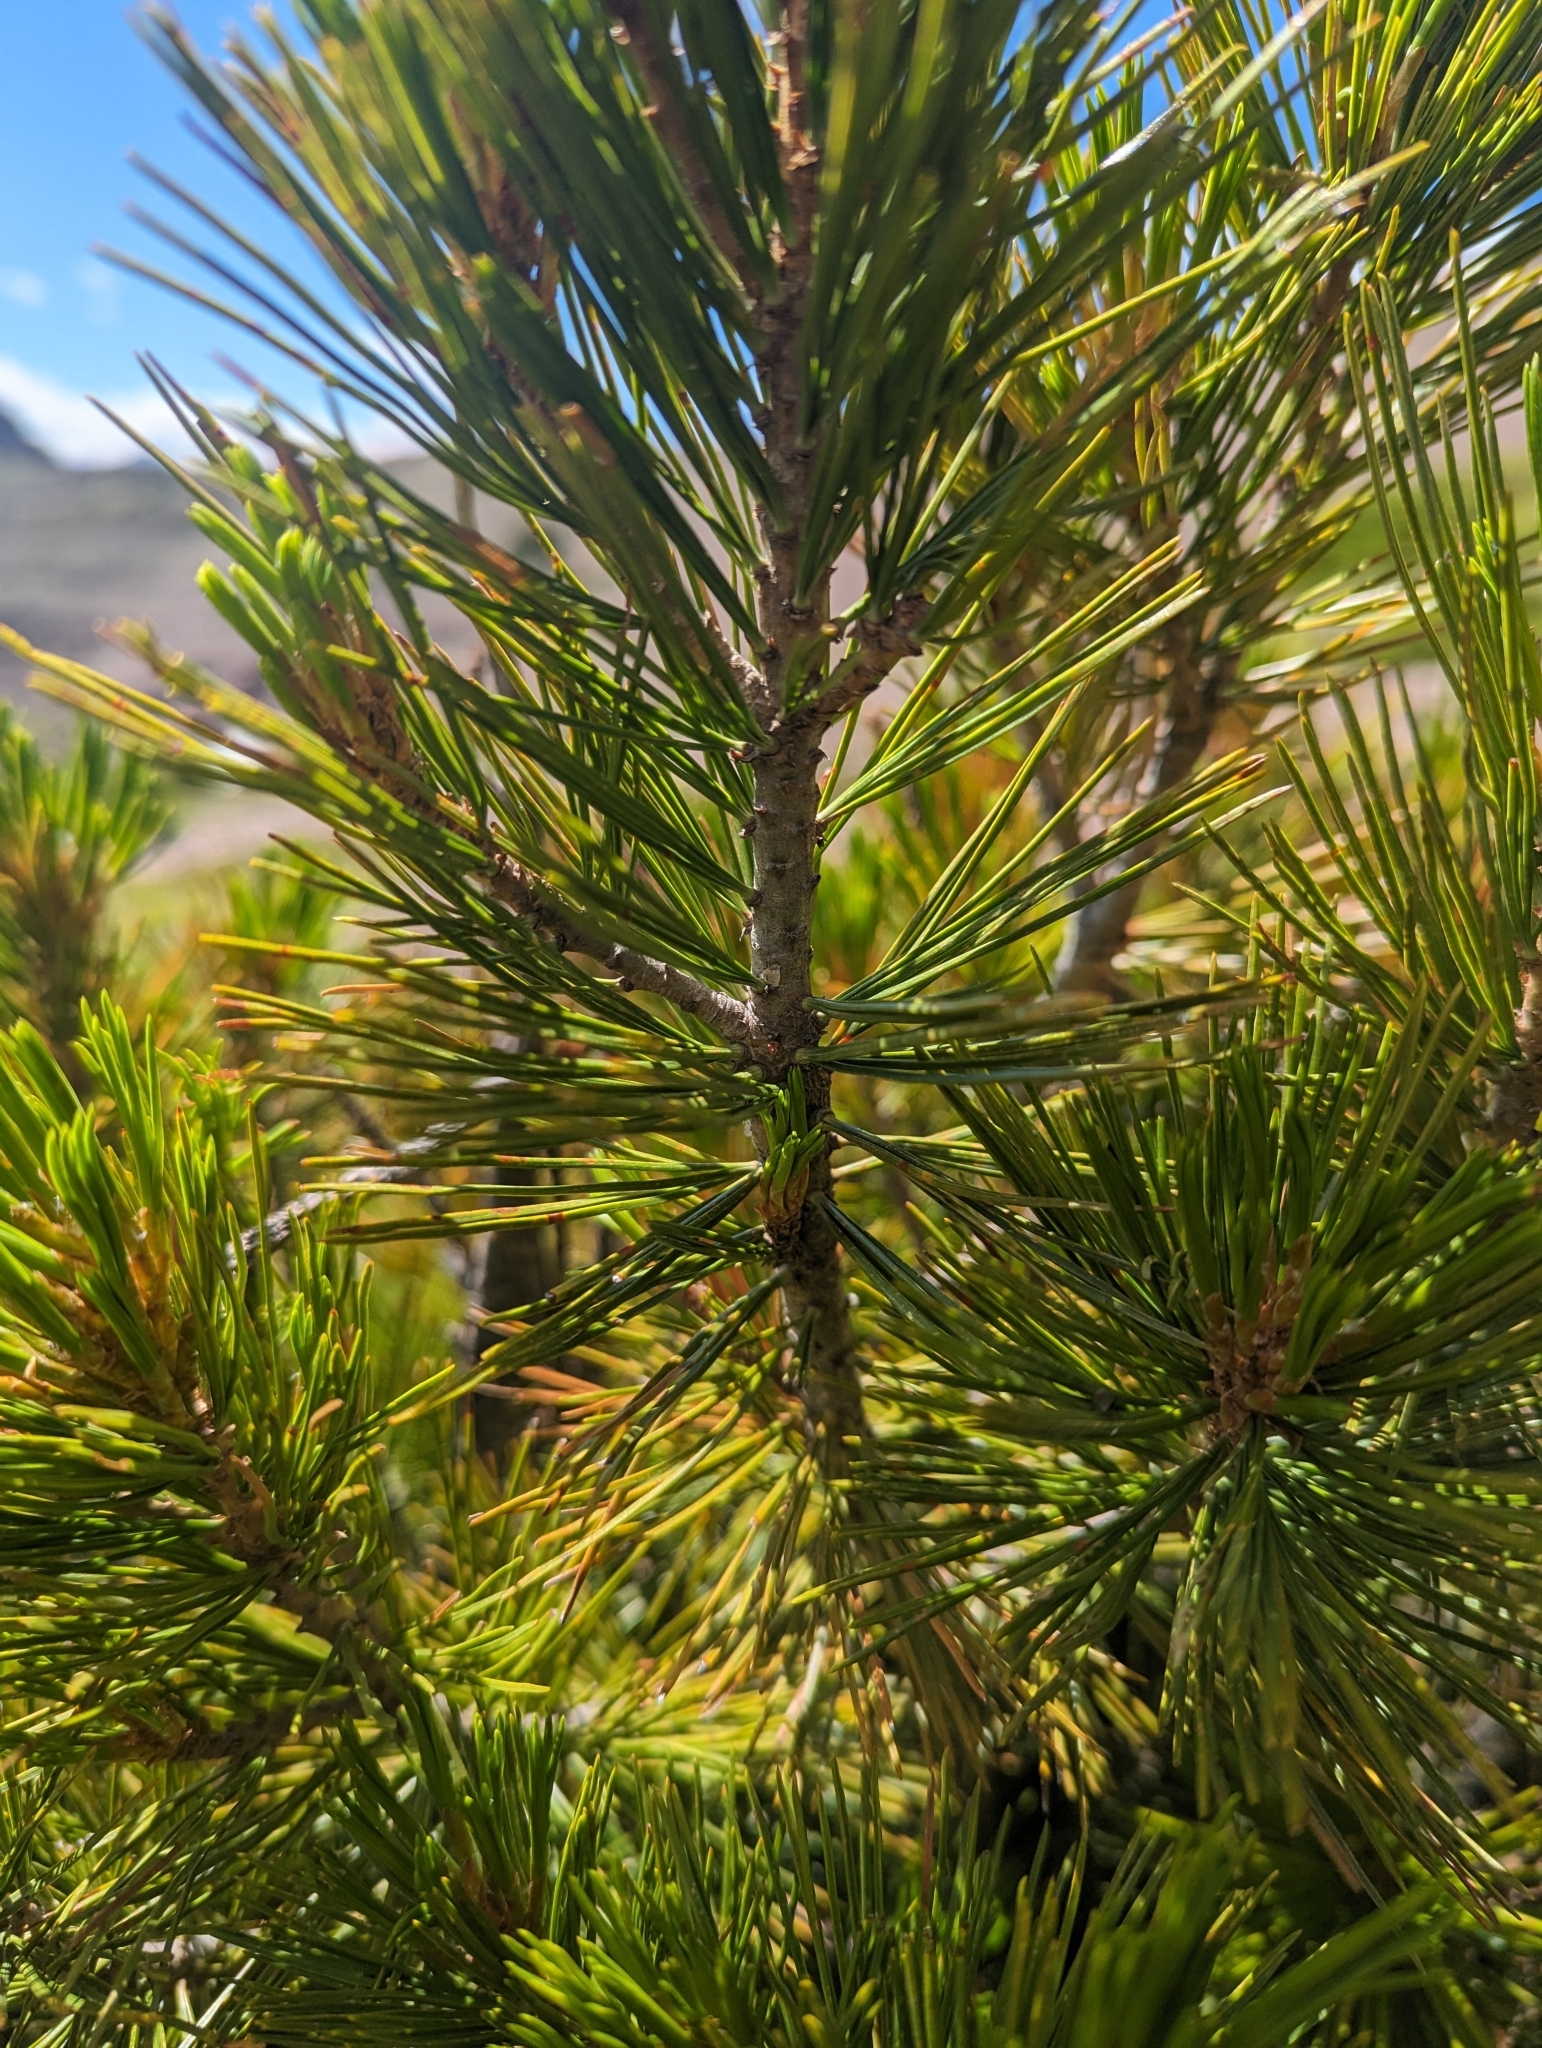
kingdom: Plantae
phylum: Tracheophyta
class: Pinopsida
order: Pinales
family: Pinaceae
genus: Pinus
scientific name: Pinus albicaulis
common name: Whitebark pine
